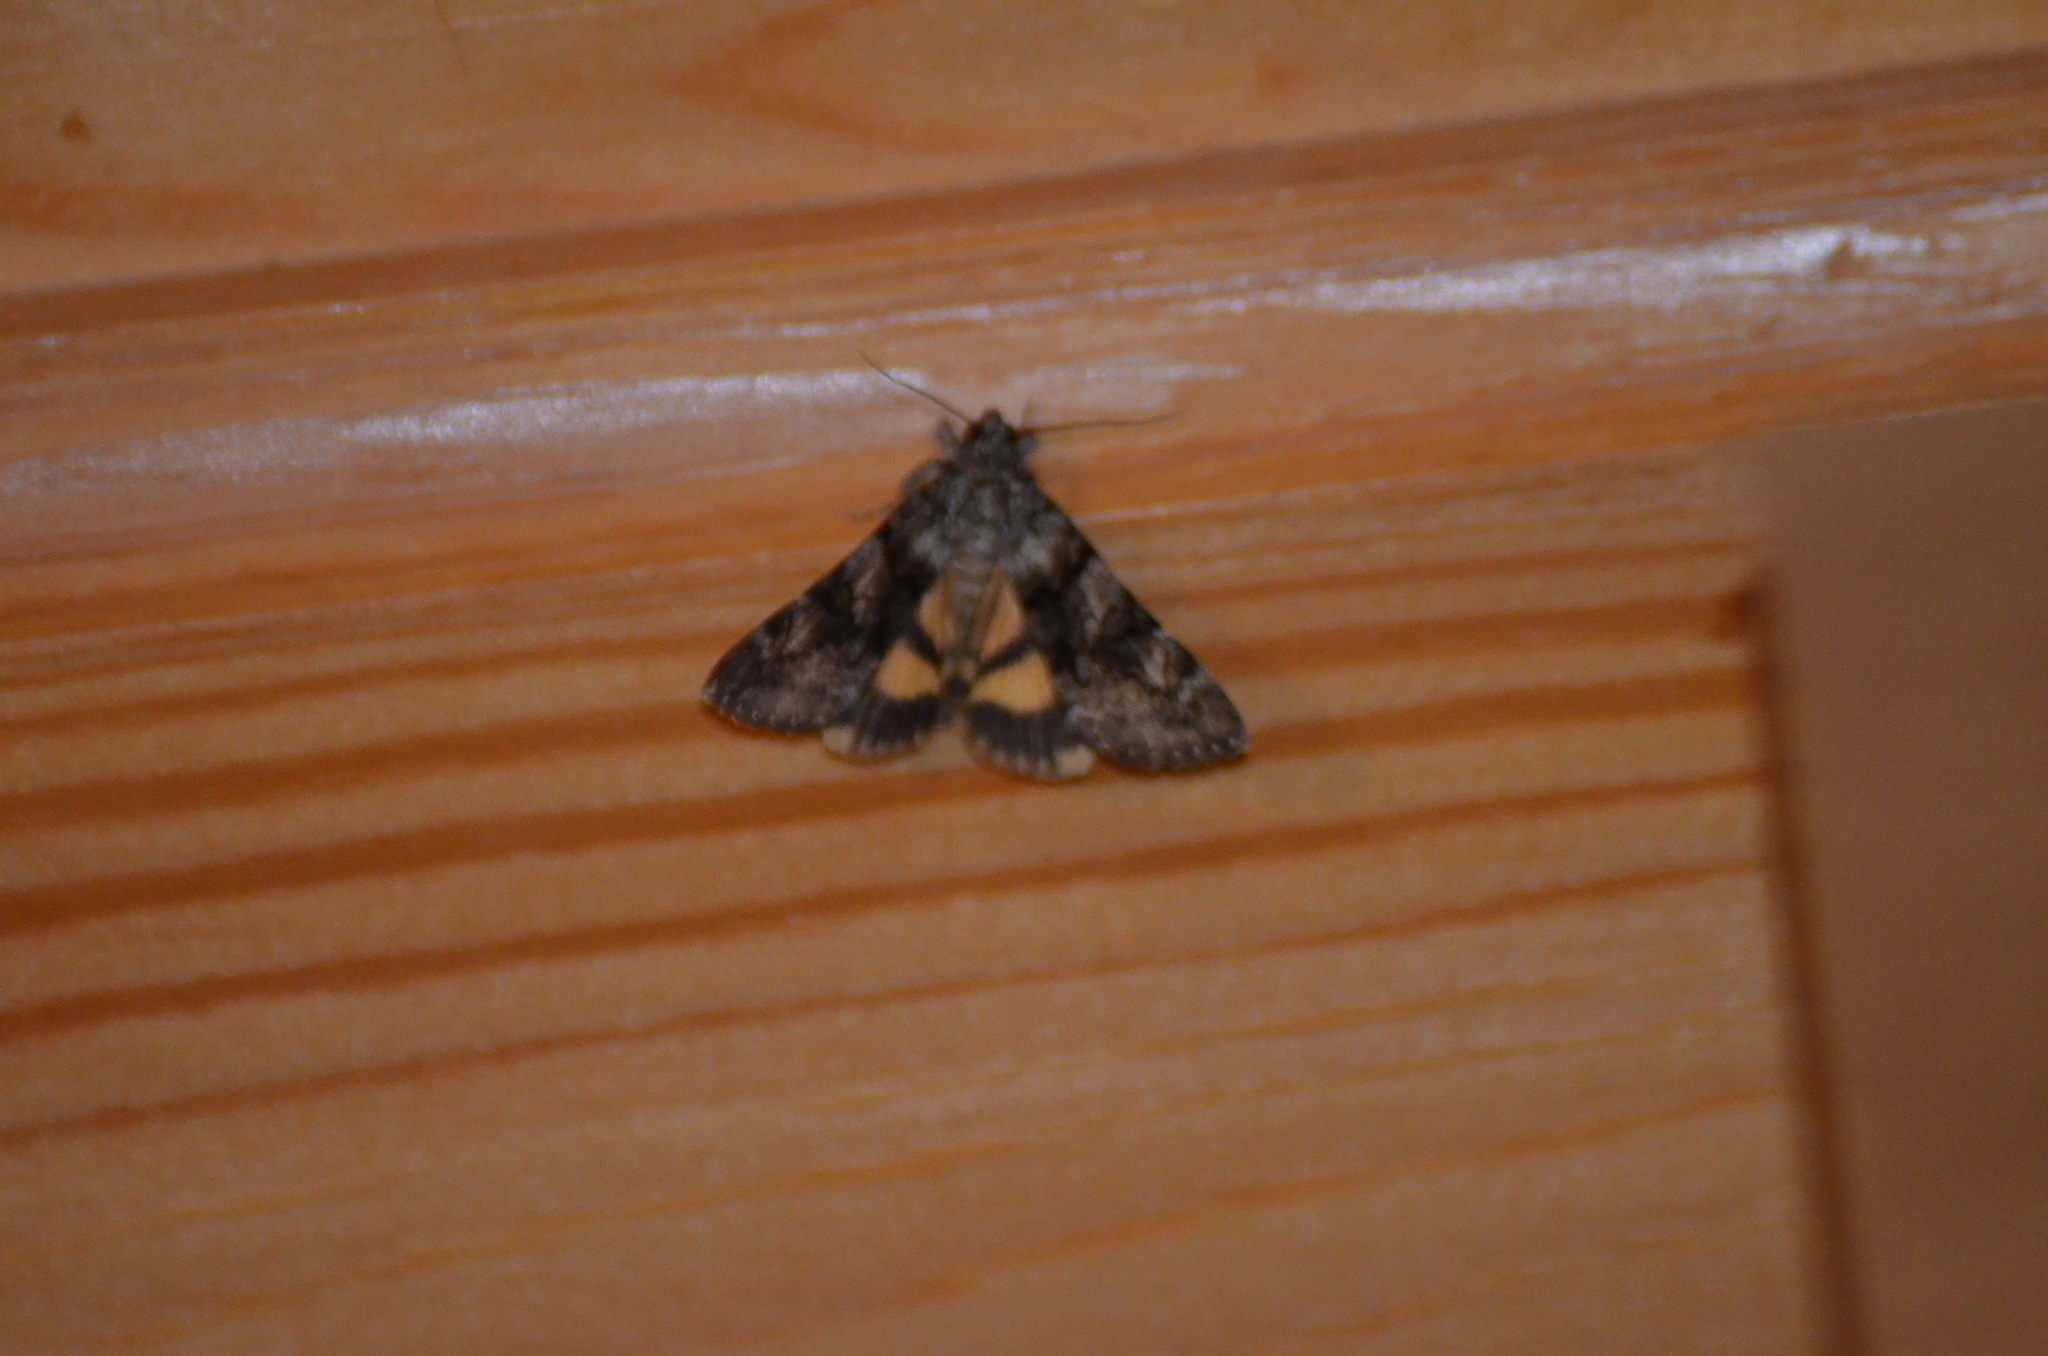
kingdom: Animalia
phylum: Arthropoda
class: Insecta
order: Lepidoptera
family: Erebidae
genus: Catocala
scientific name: Catocala nymphagoga
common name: Oak yellow underwing
